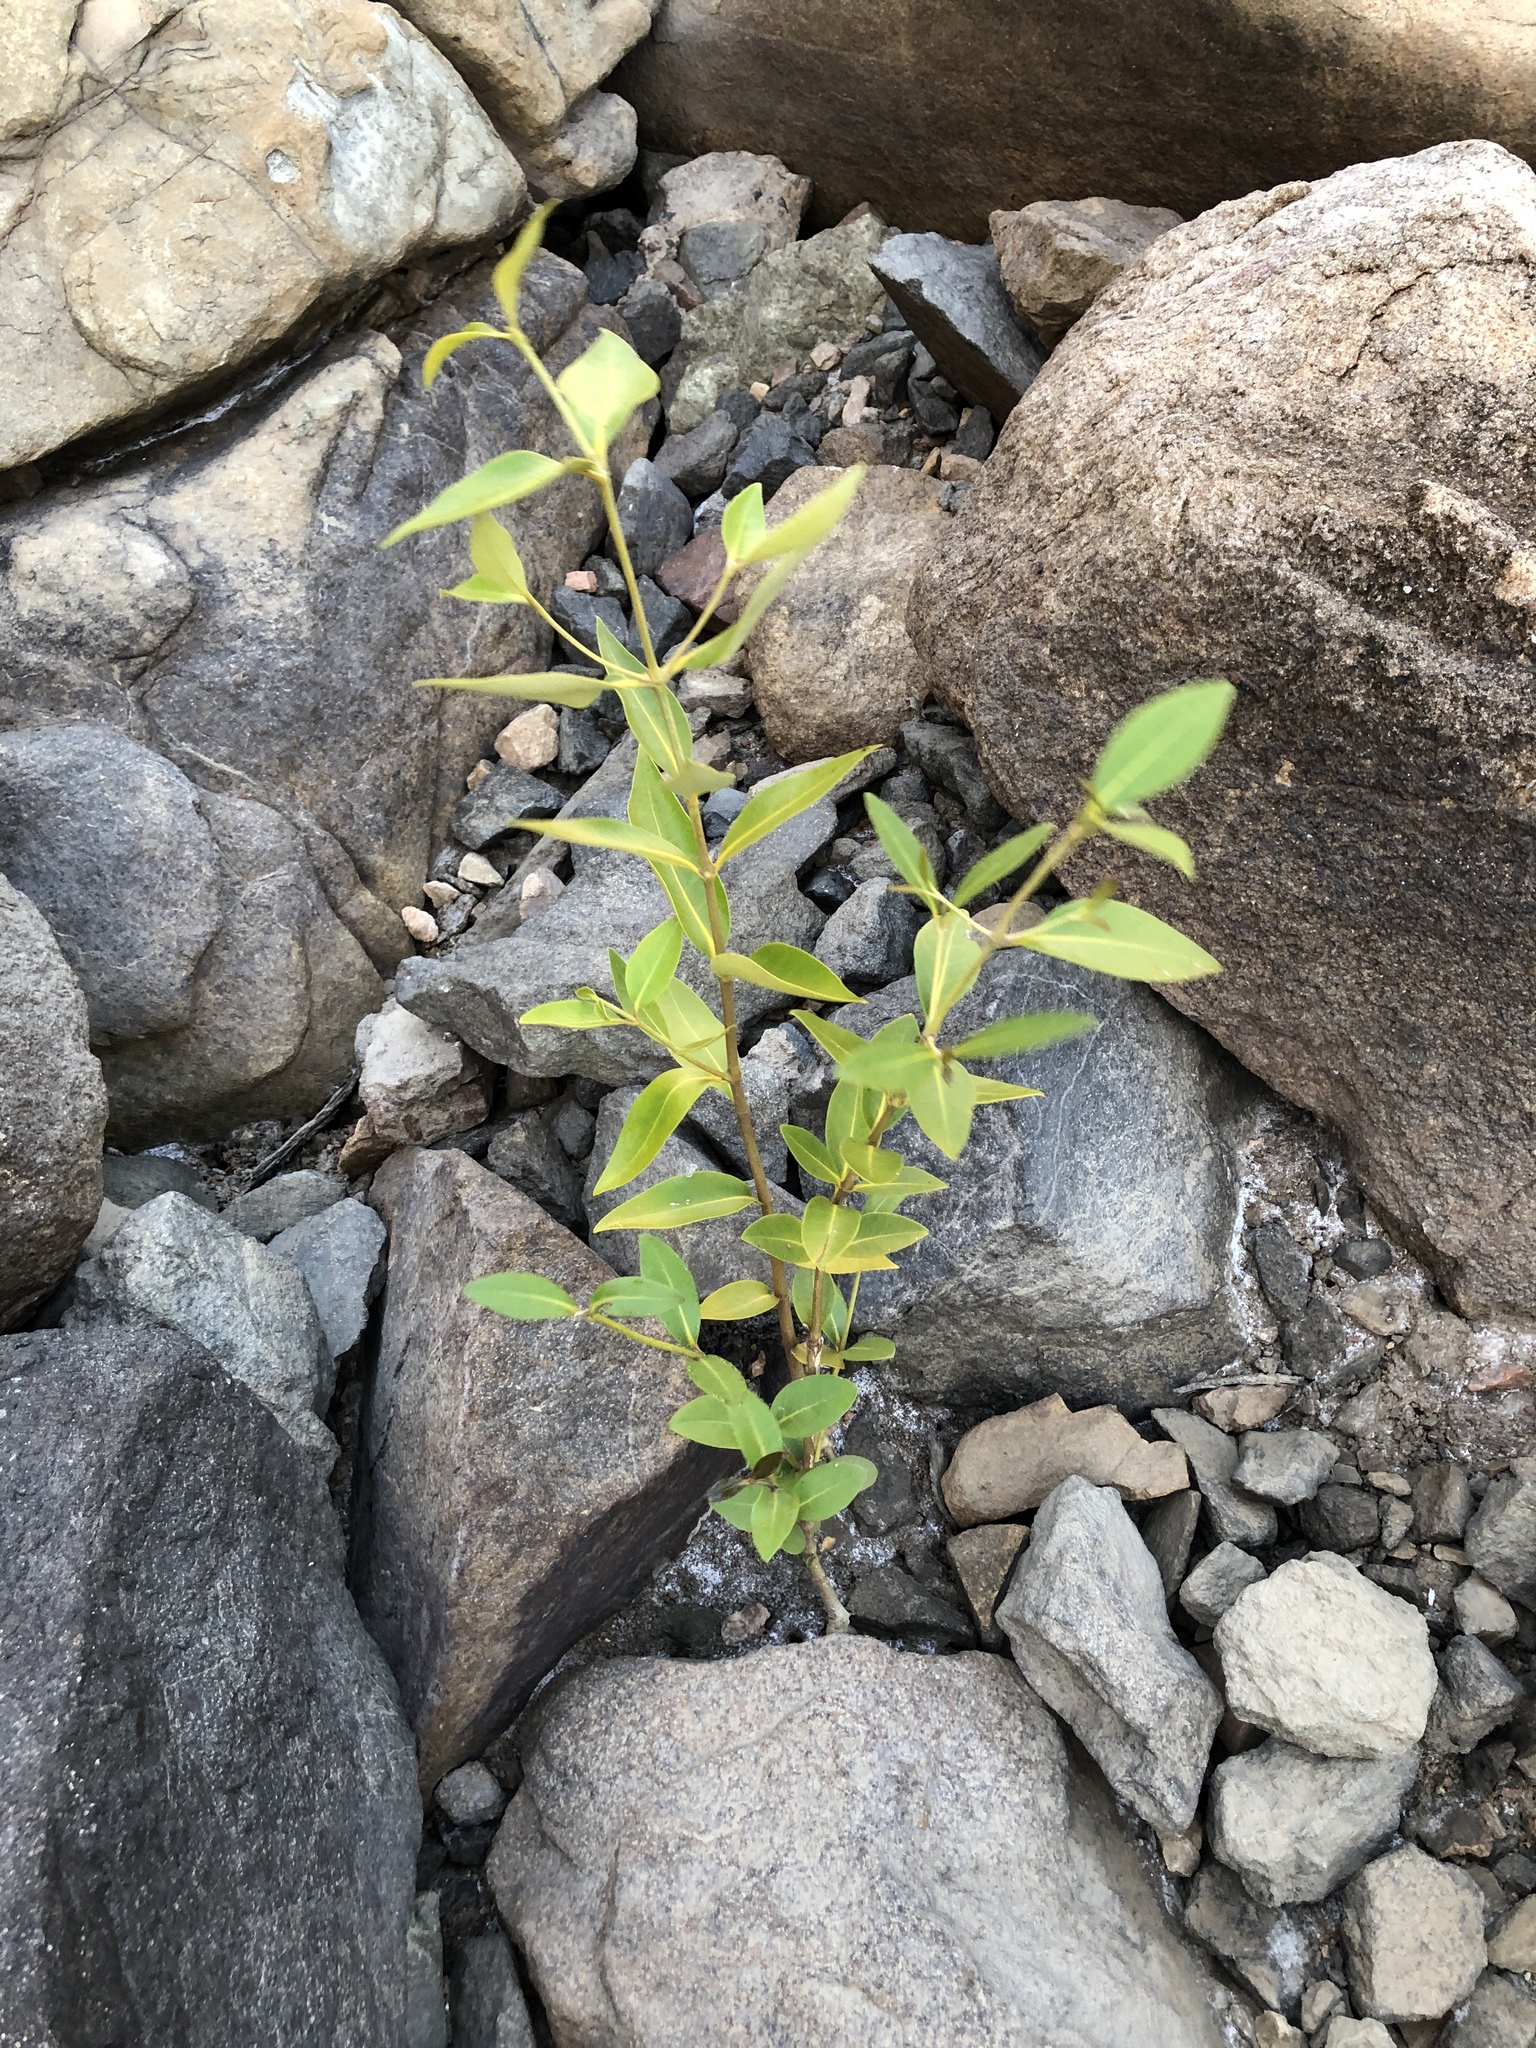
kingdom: Plantae
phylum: Tracheophyta
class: Magnoliopsida
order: Lamiales
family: Acanthaceae
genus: Avicennia
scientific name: Avicennia marina
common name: Gray mangrove
